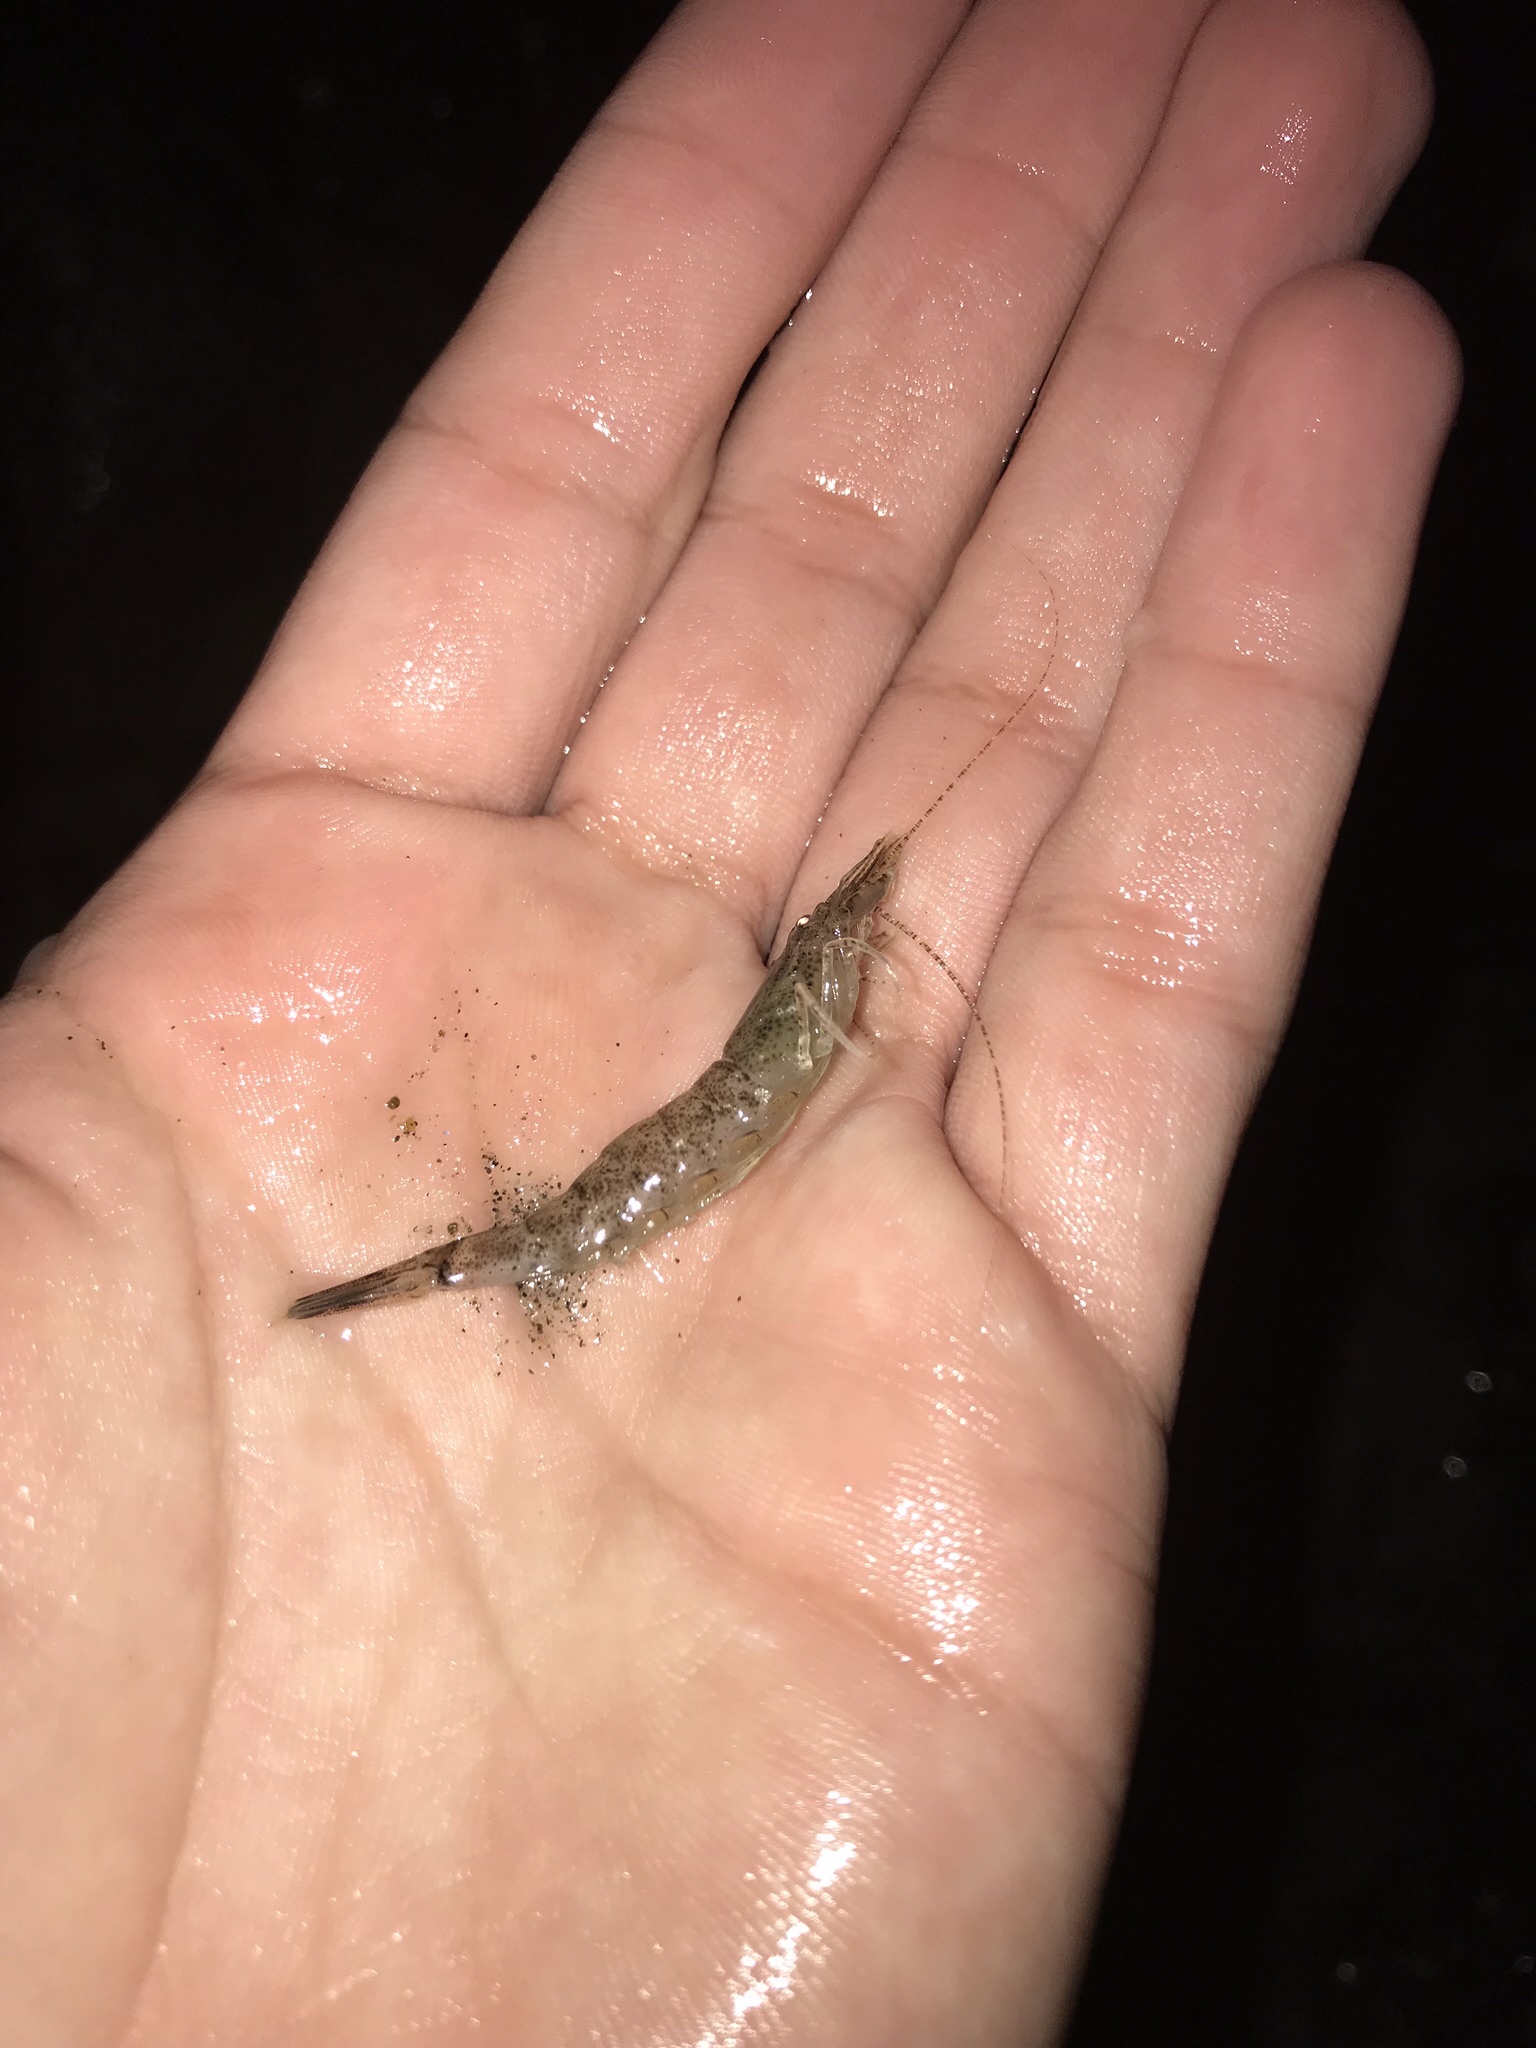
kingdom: Animalia
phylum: Arthropoda
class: Malacostraca
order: Decapoda
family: Crangonidae
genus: Crangon
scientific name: Crangon septemspinosa
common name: Bail shrimp
